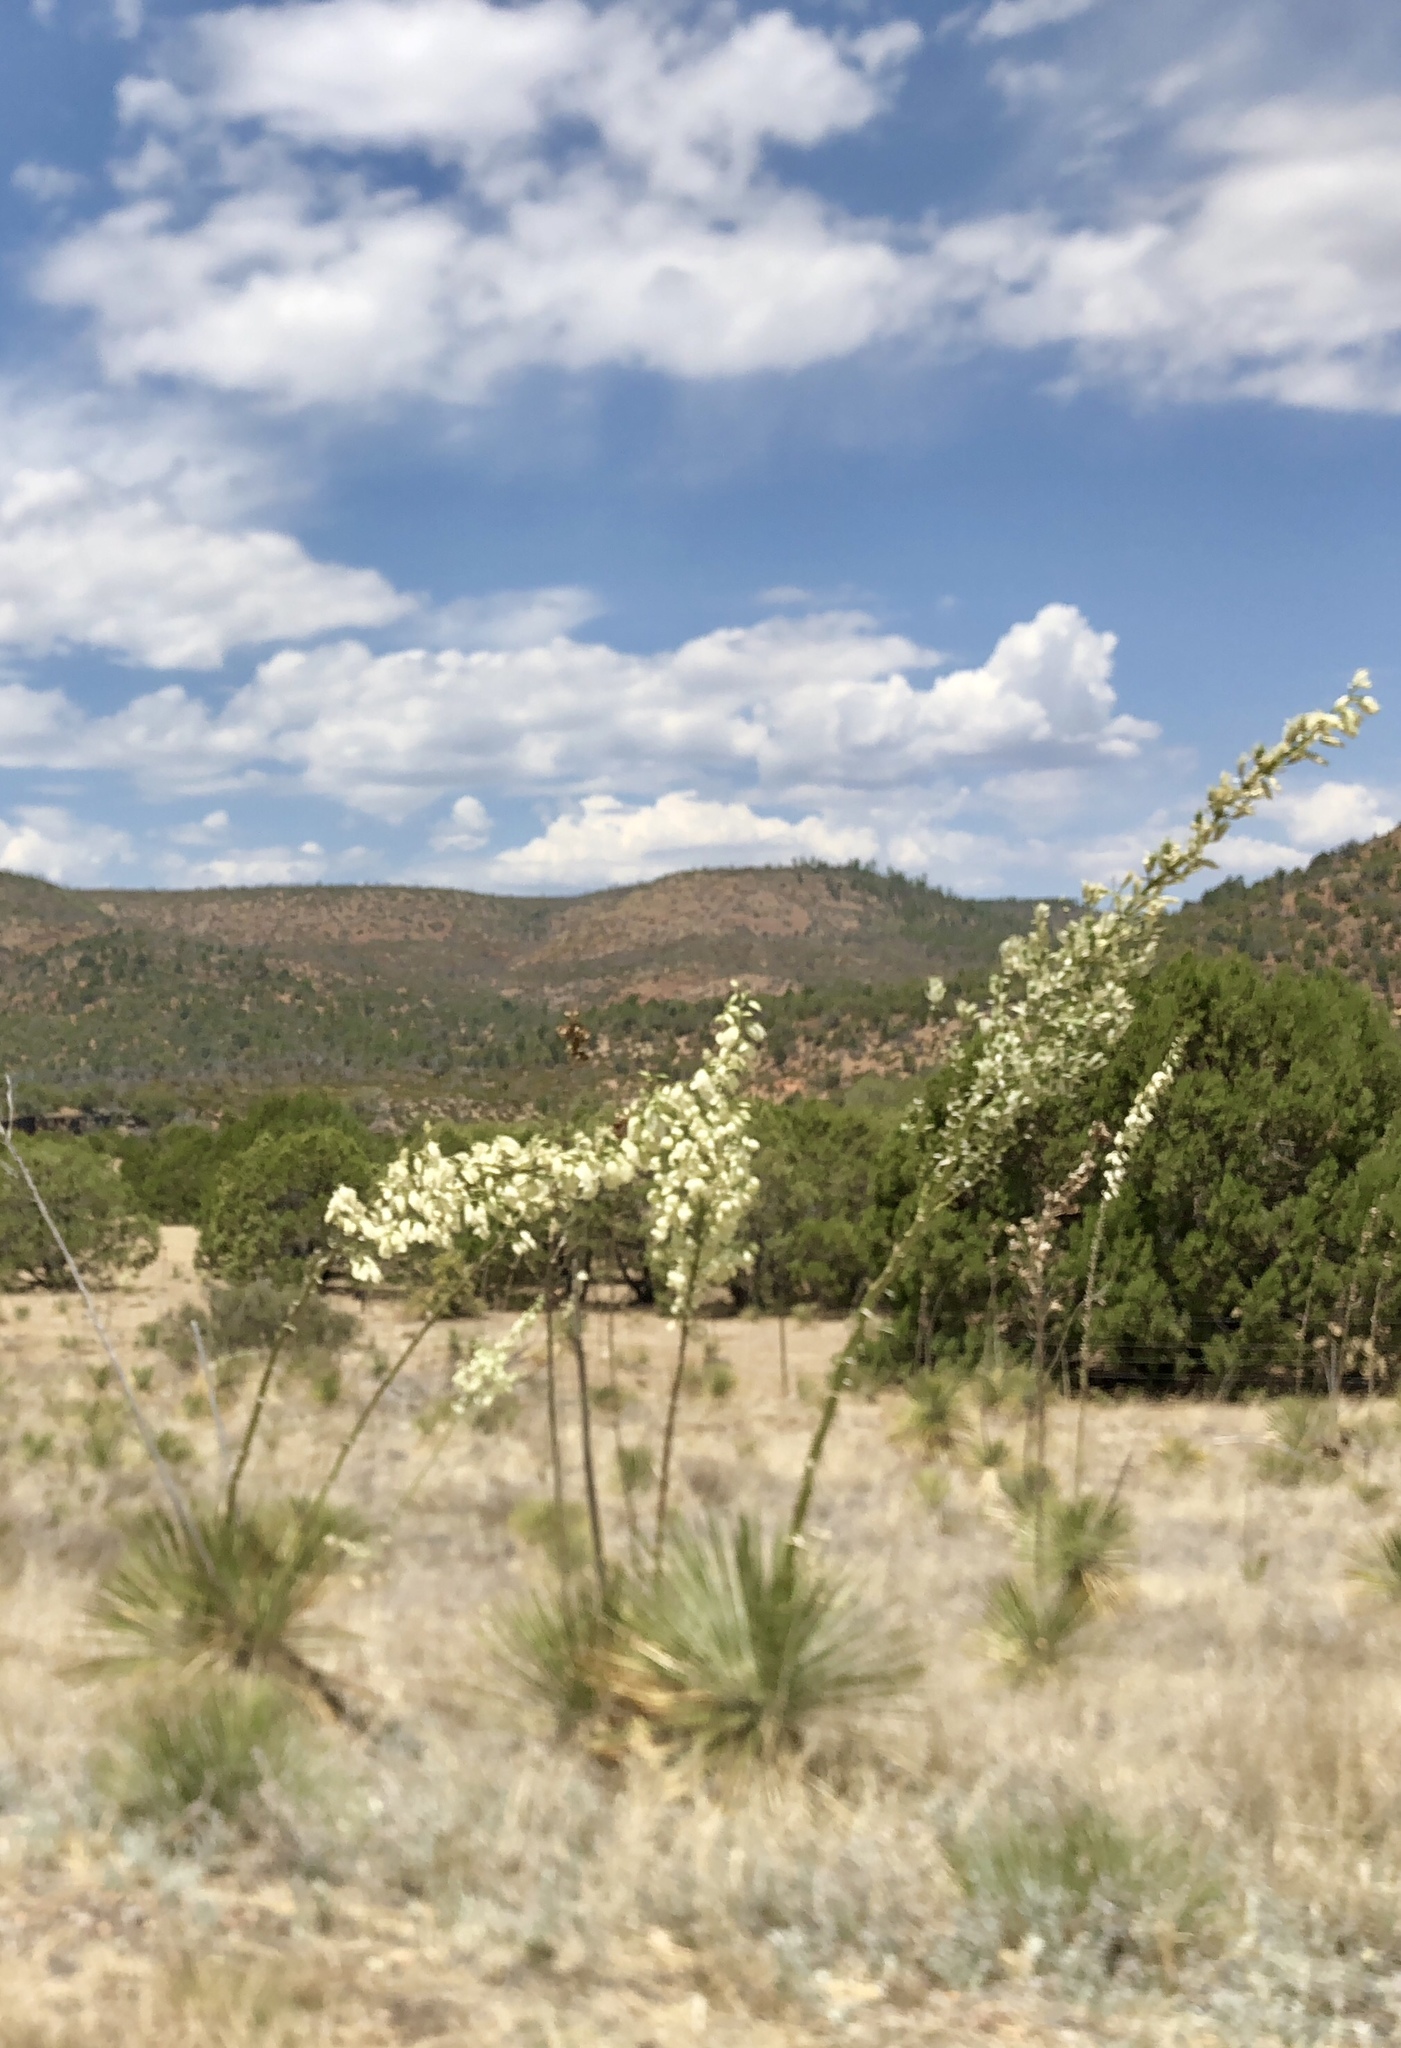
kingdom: Plantae
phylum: Tracheophyta
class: Liliopsida
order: Asparagales
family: Asparagaceae
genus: Yucca
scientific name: Yucca elata
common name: Palmella
